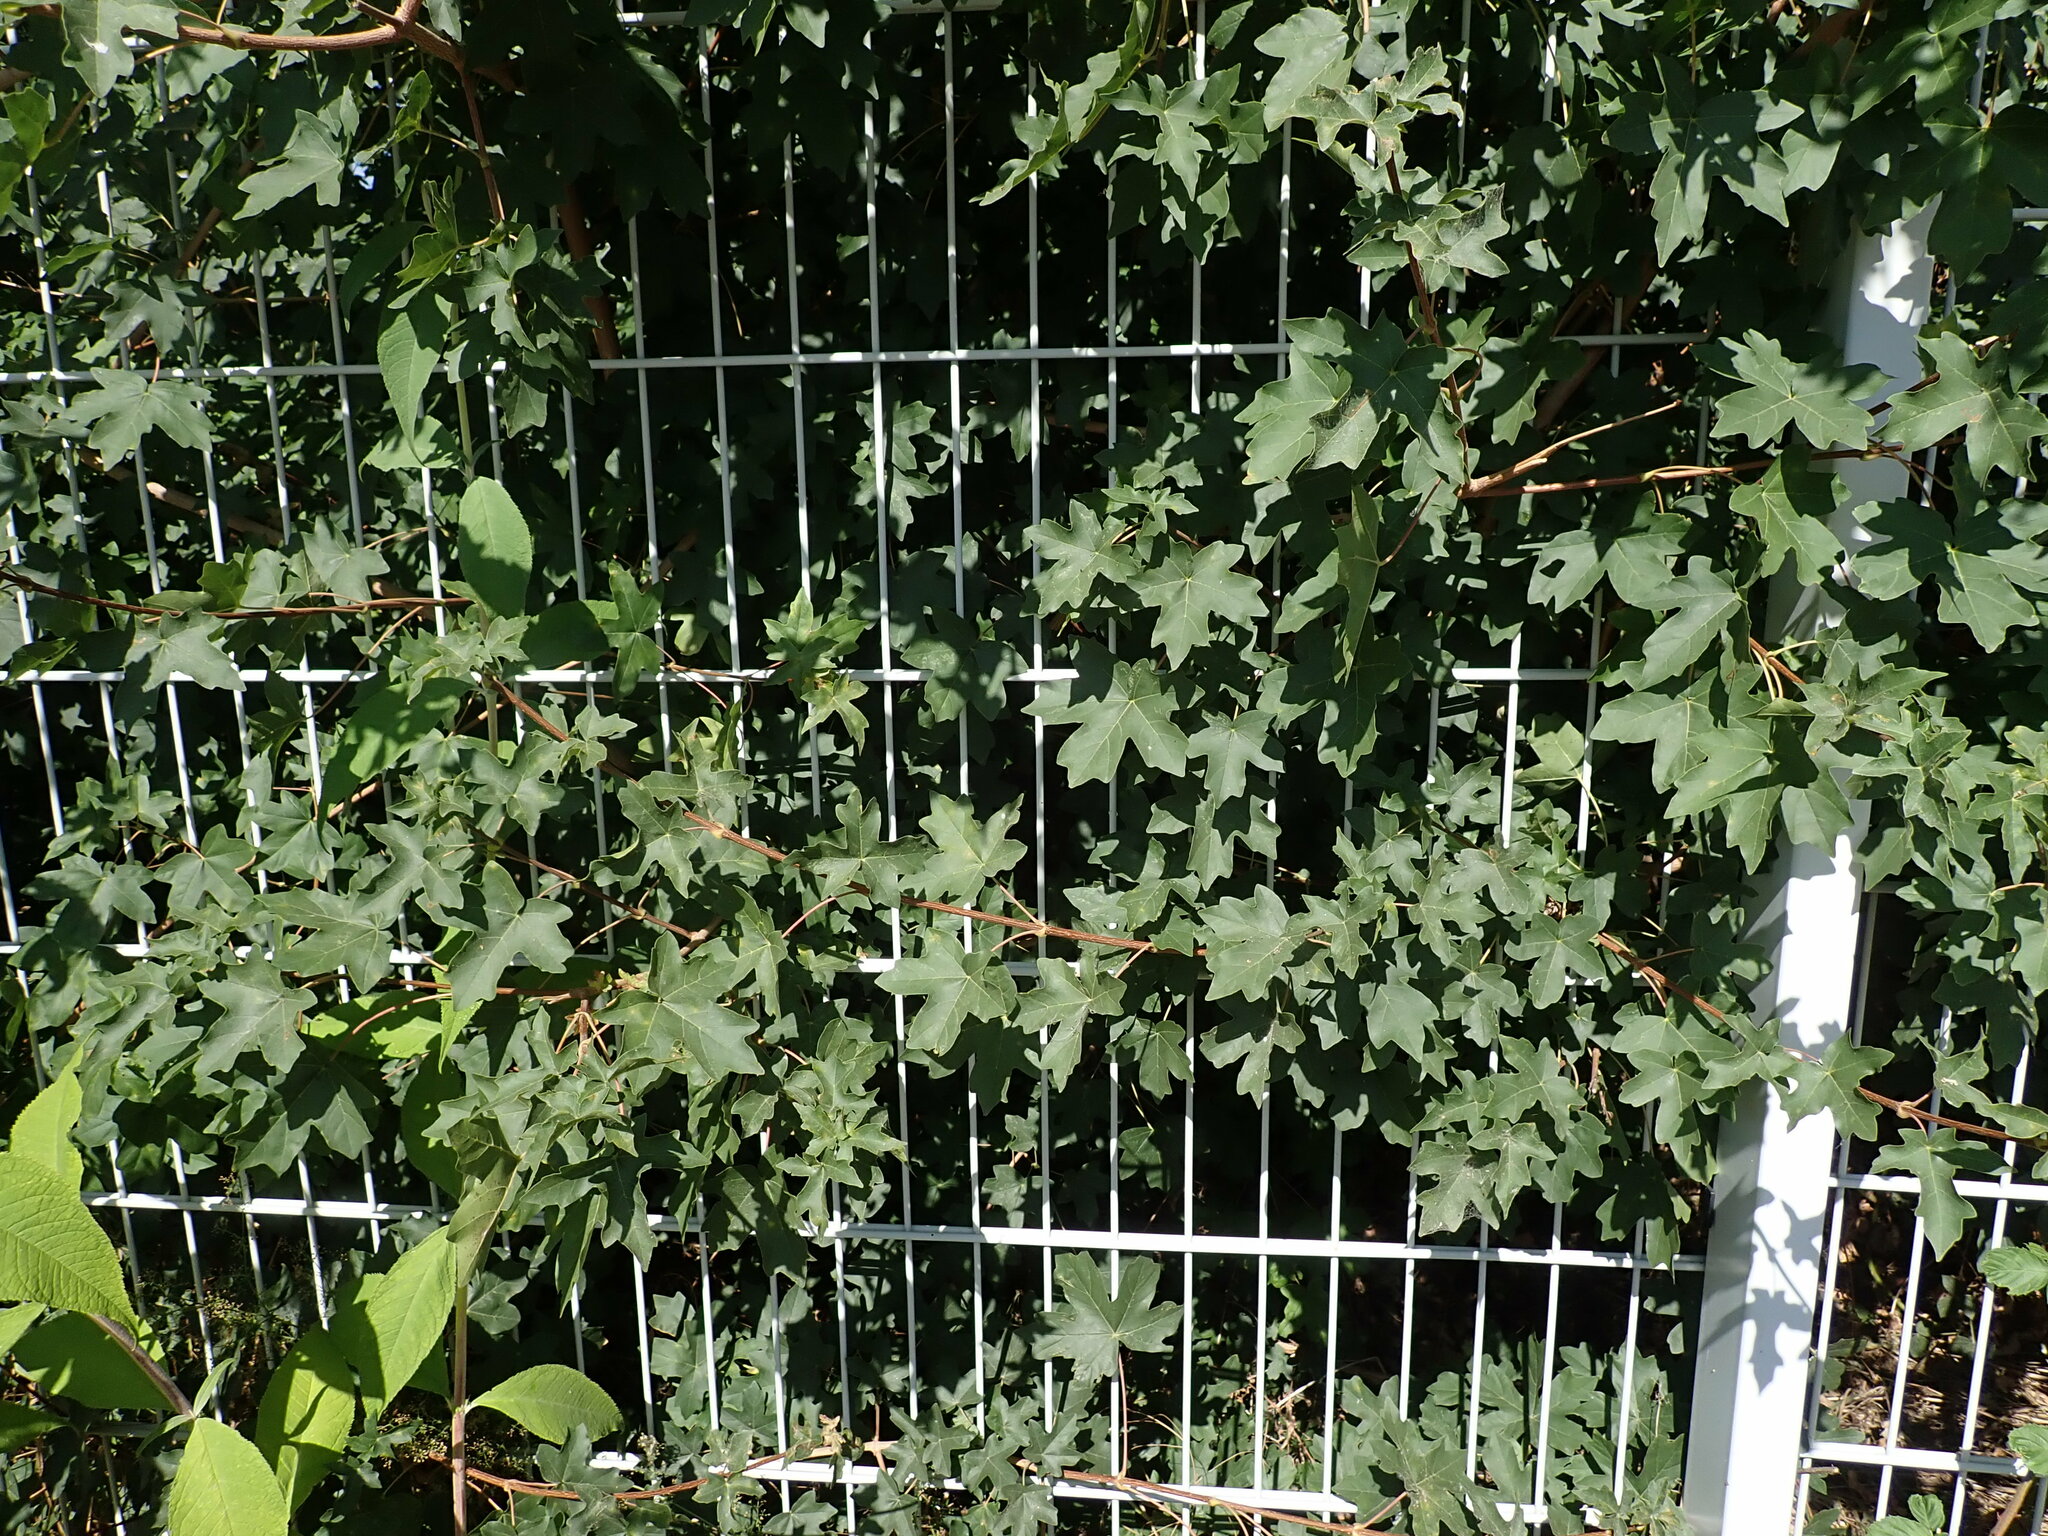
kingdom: Plantae
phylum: Tracheophyta
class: Magnoliopsida
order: Sapindales
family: Sapindaceae
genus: Acer
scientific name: Acer campestre
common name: Field maple
